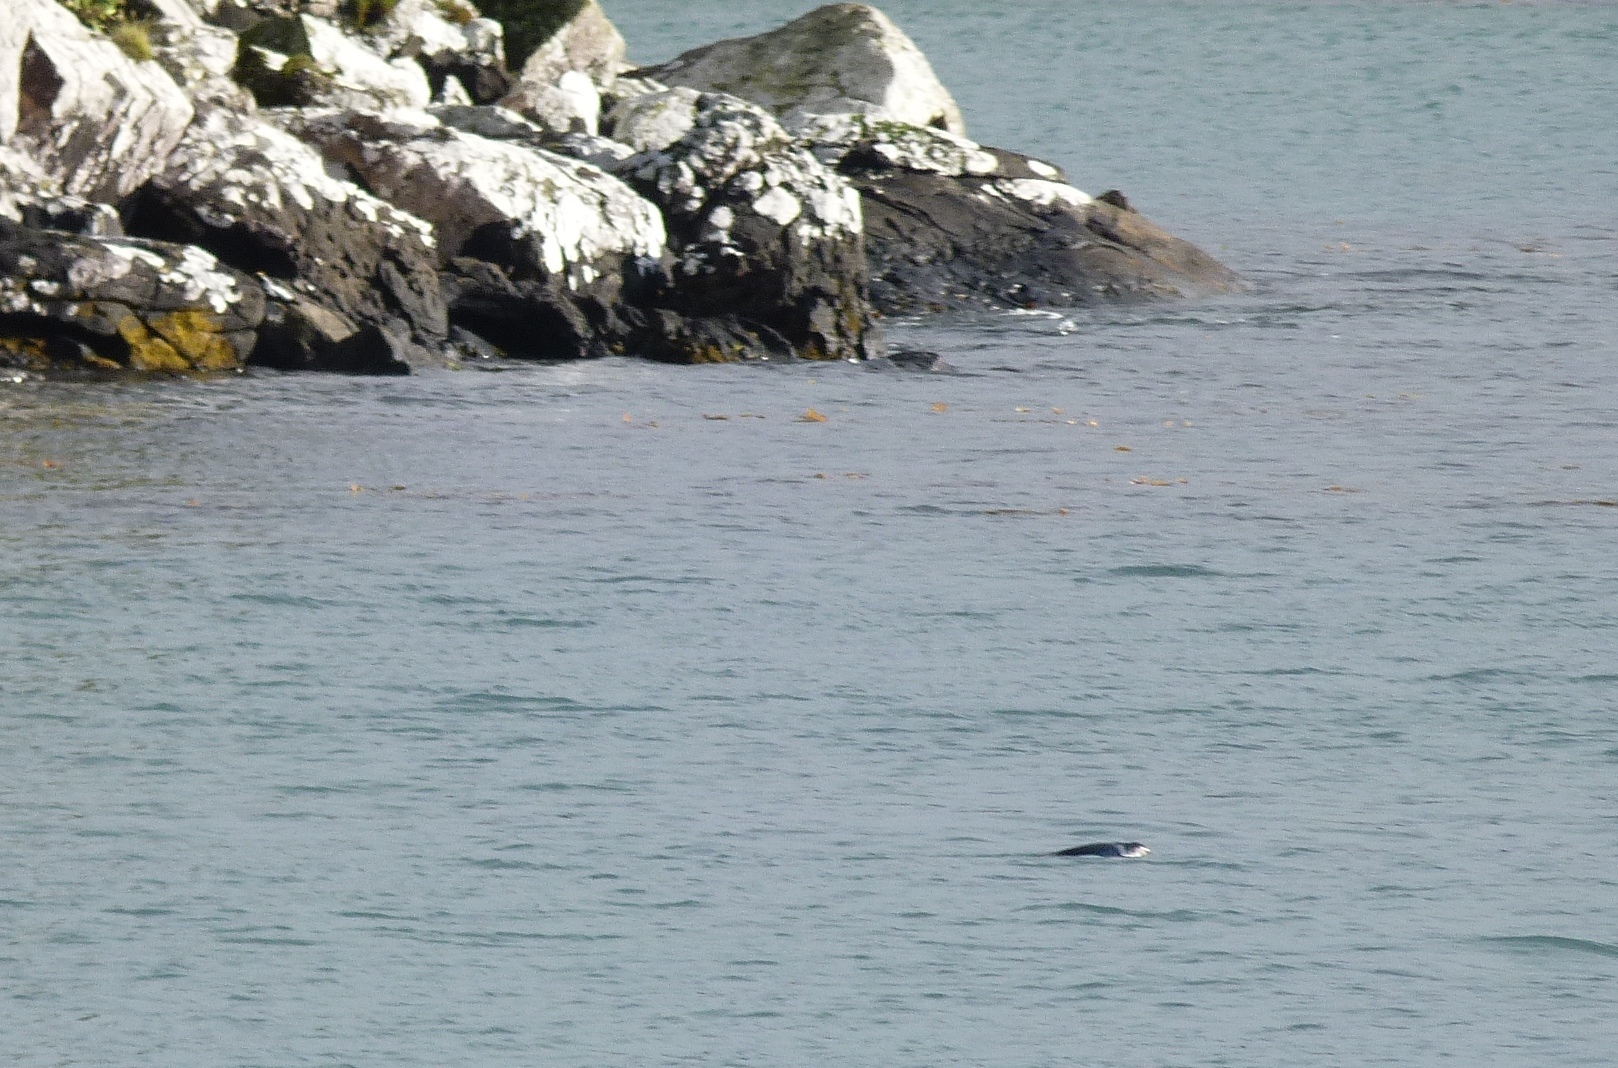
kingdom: Animalia
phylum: Chordata
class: Aves
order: Sphenisciformes
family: Spheniscidae
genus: Eudyptula
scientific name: Eudyptula minor
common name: Little penguin
